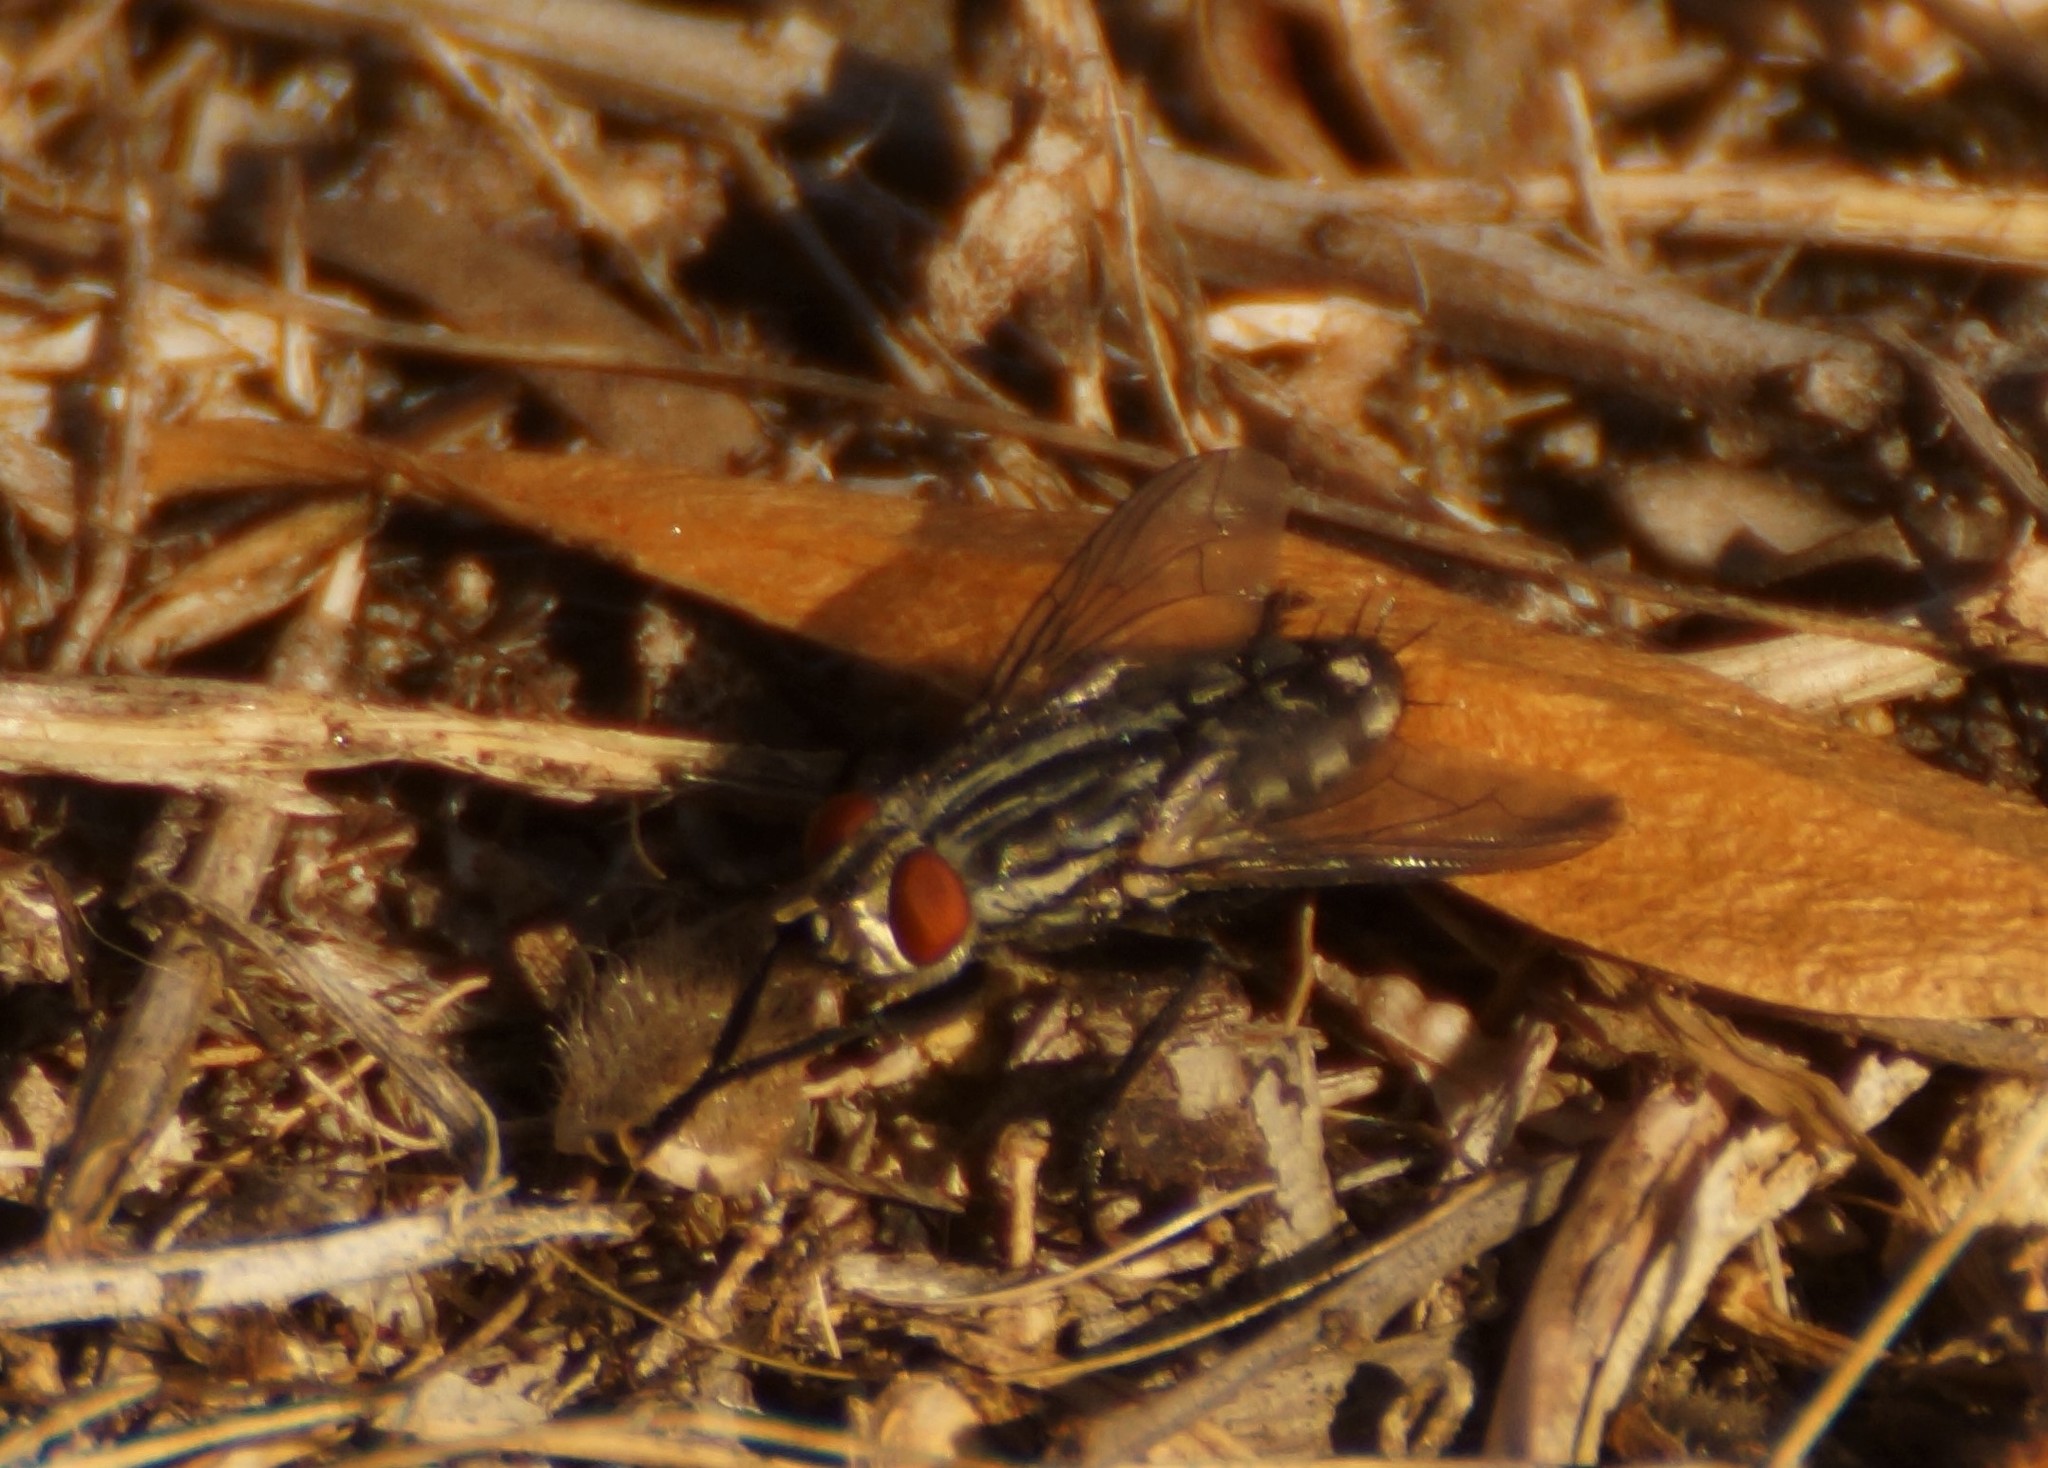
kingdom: Animalia
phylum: Arthropoda
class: Insecta
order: Diptera
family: Sarcophagidae
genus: Sarcophaga
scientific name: Sarcophaga
